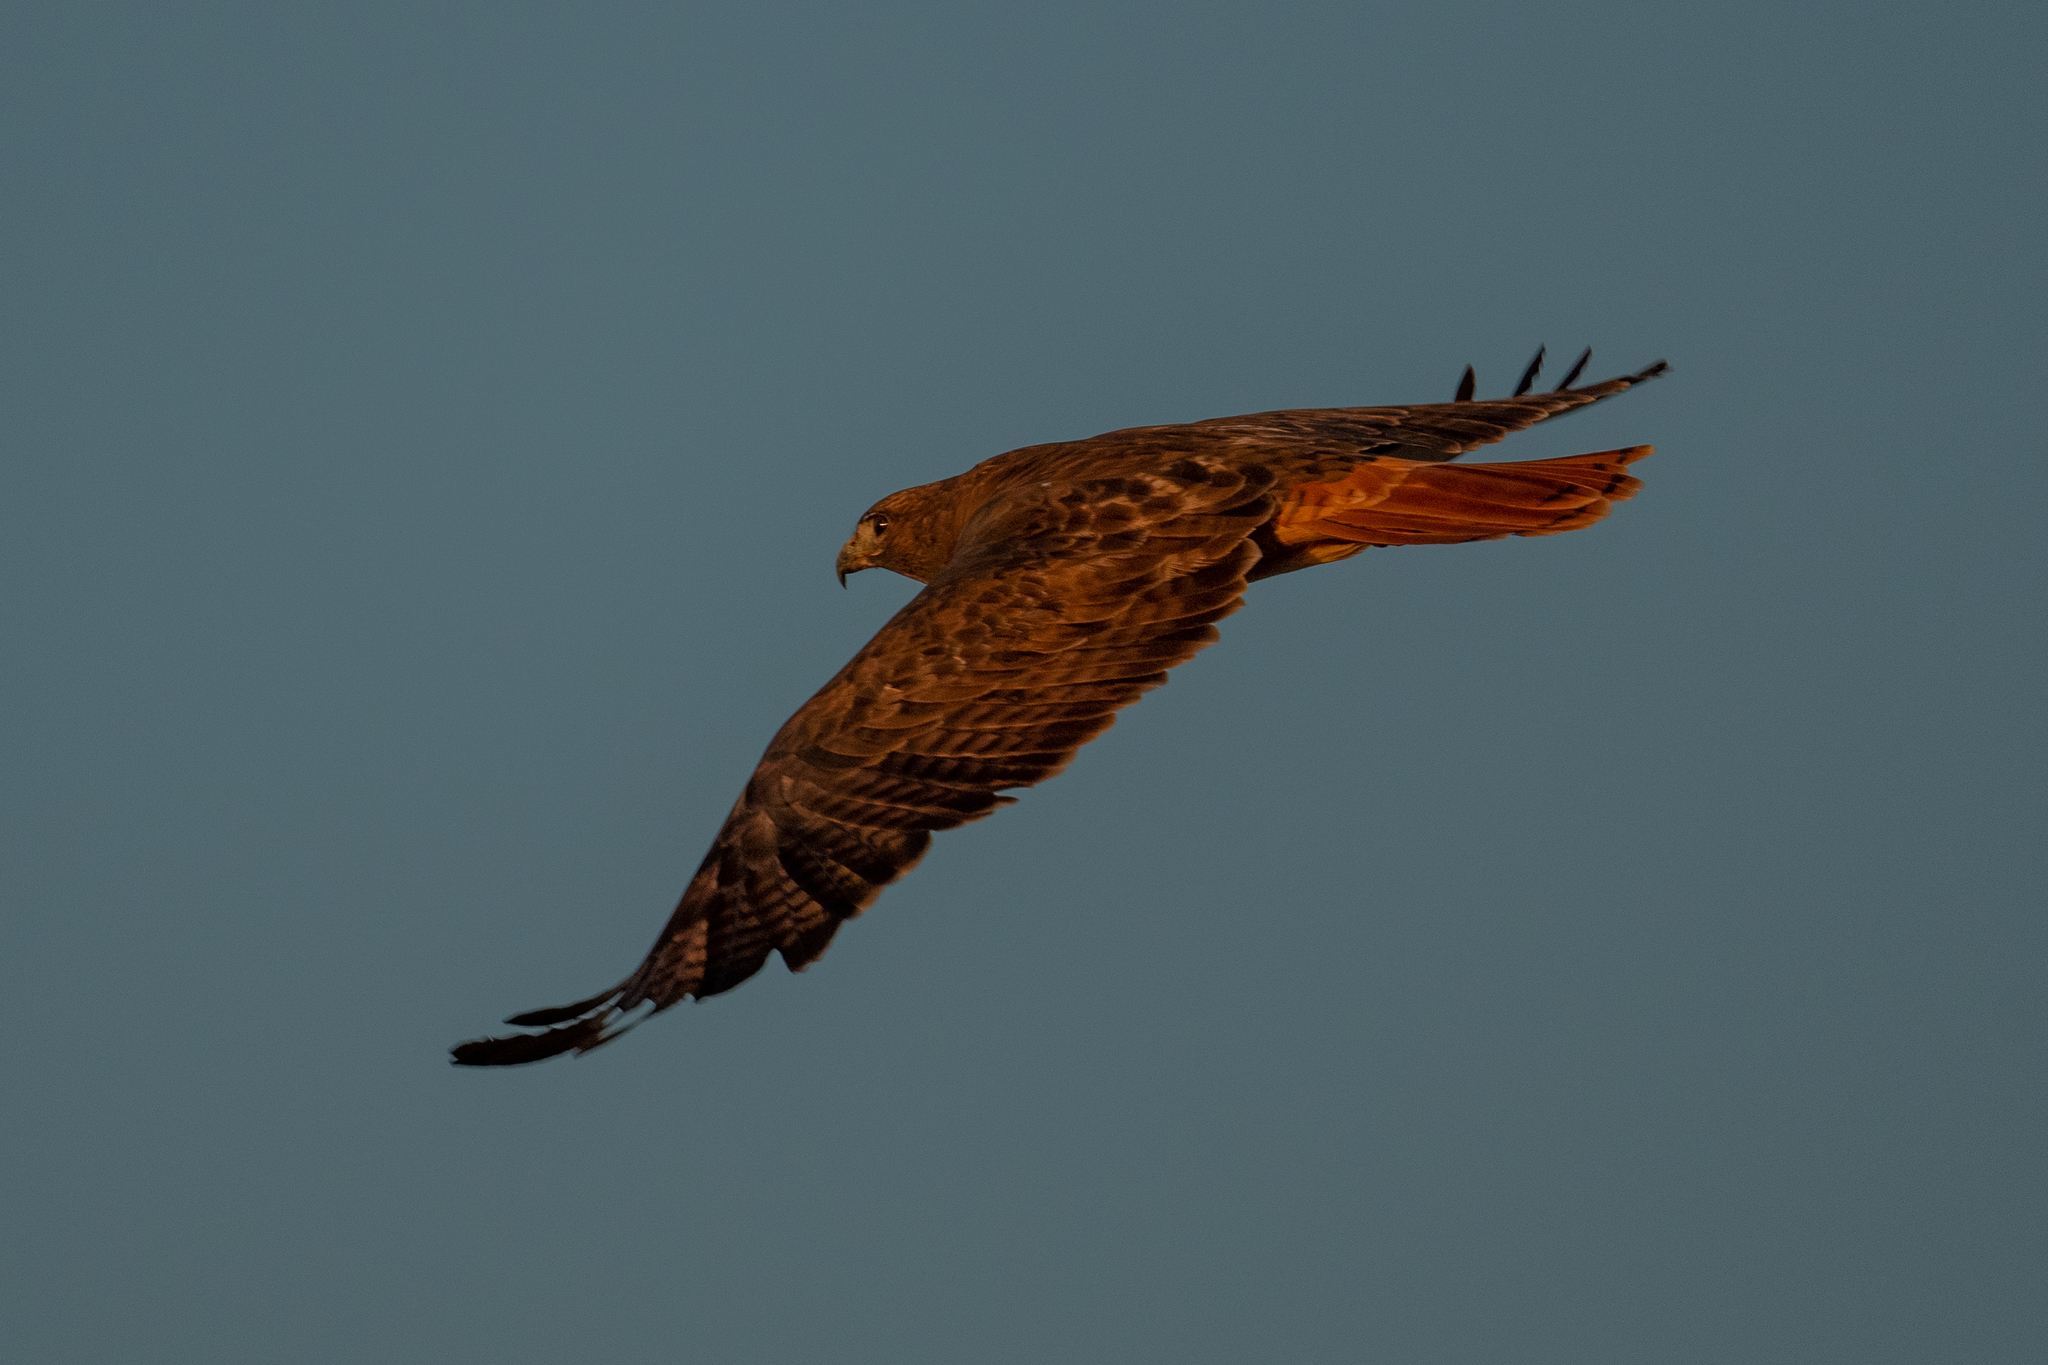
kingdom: Animalia
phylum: Chordata
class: Aves
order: Accipitriformes
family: Accipitridae
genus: Buteo
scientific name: Buteo jamaicensis
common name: Red-tailed hawk
